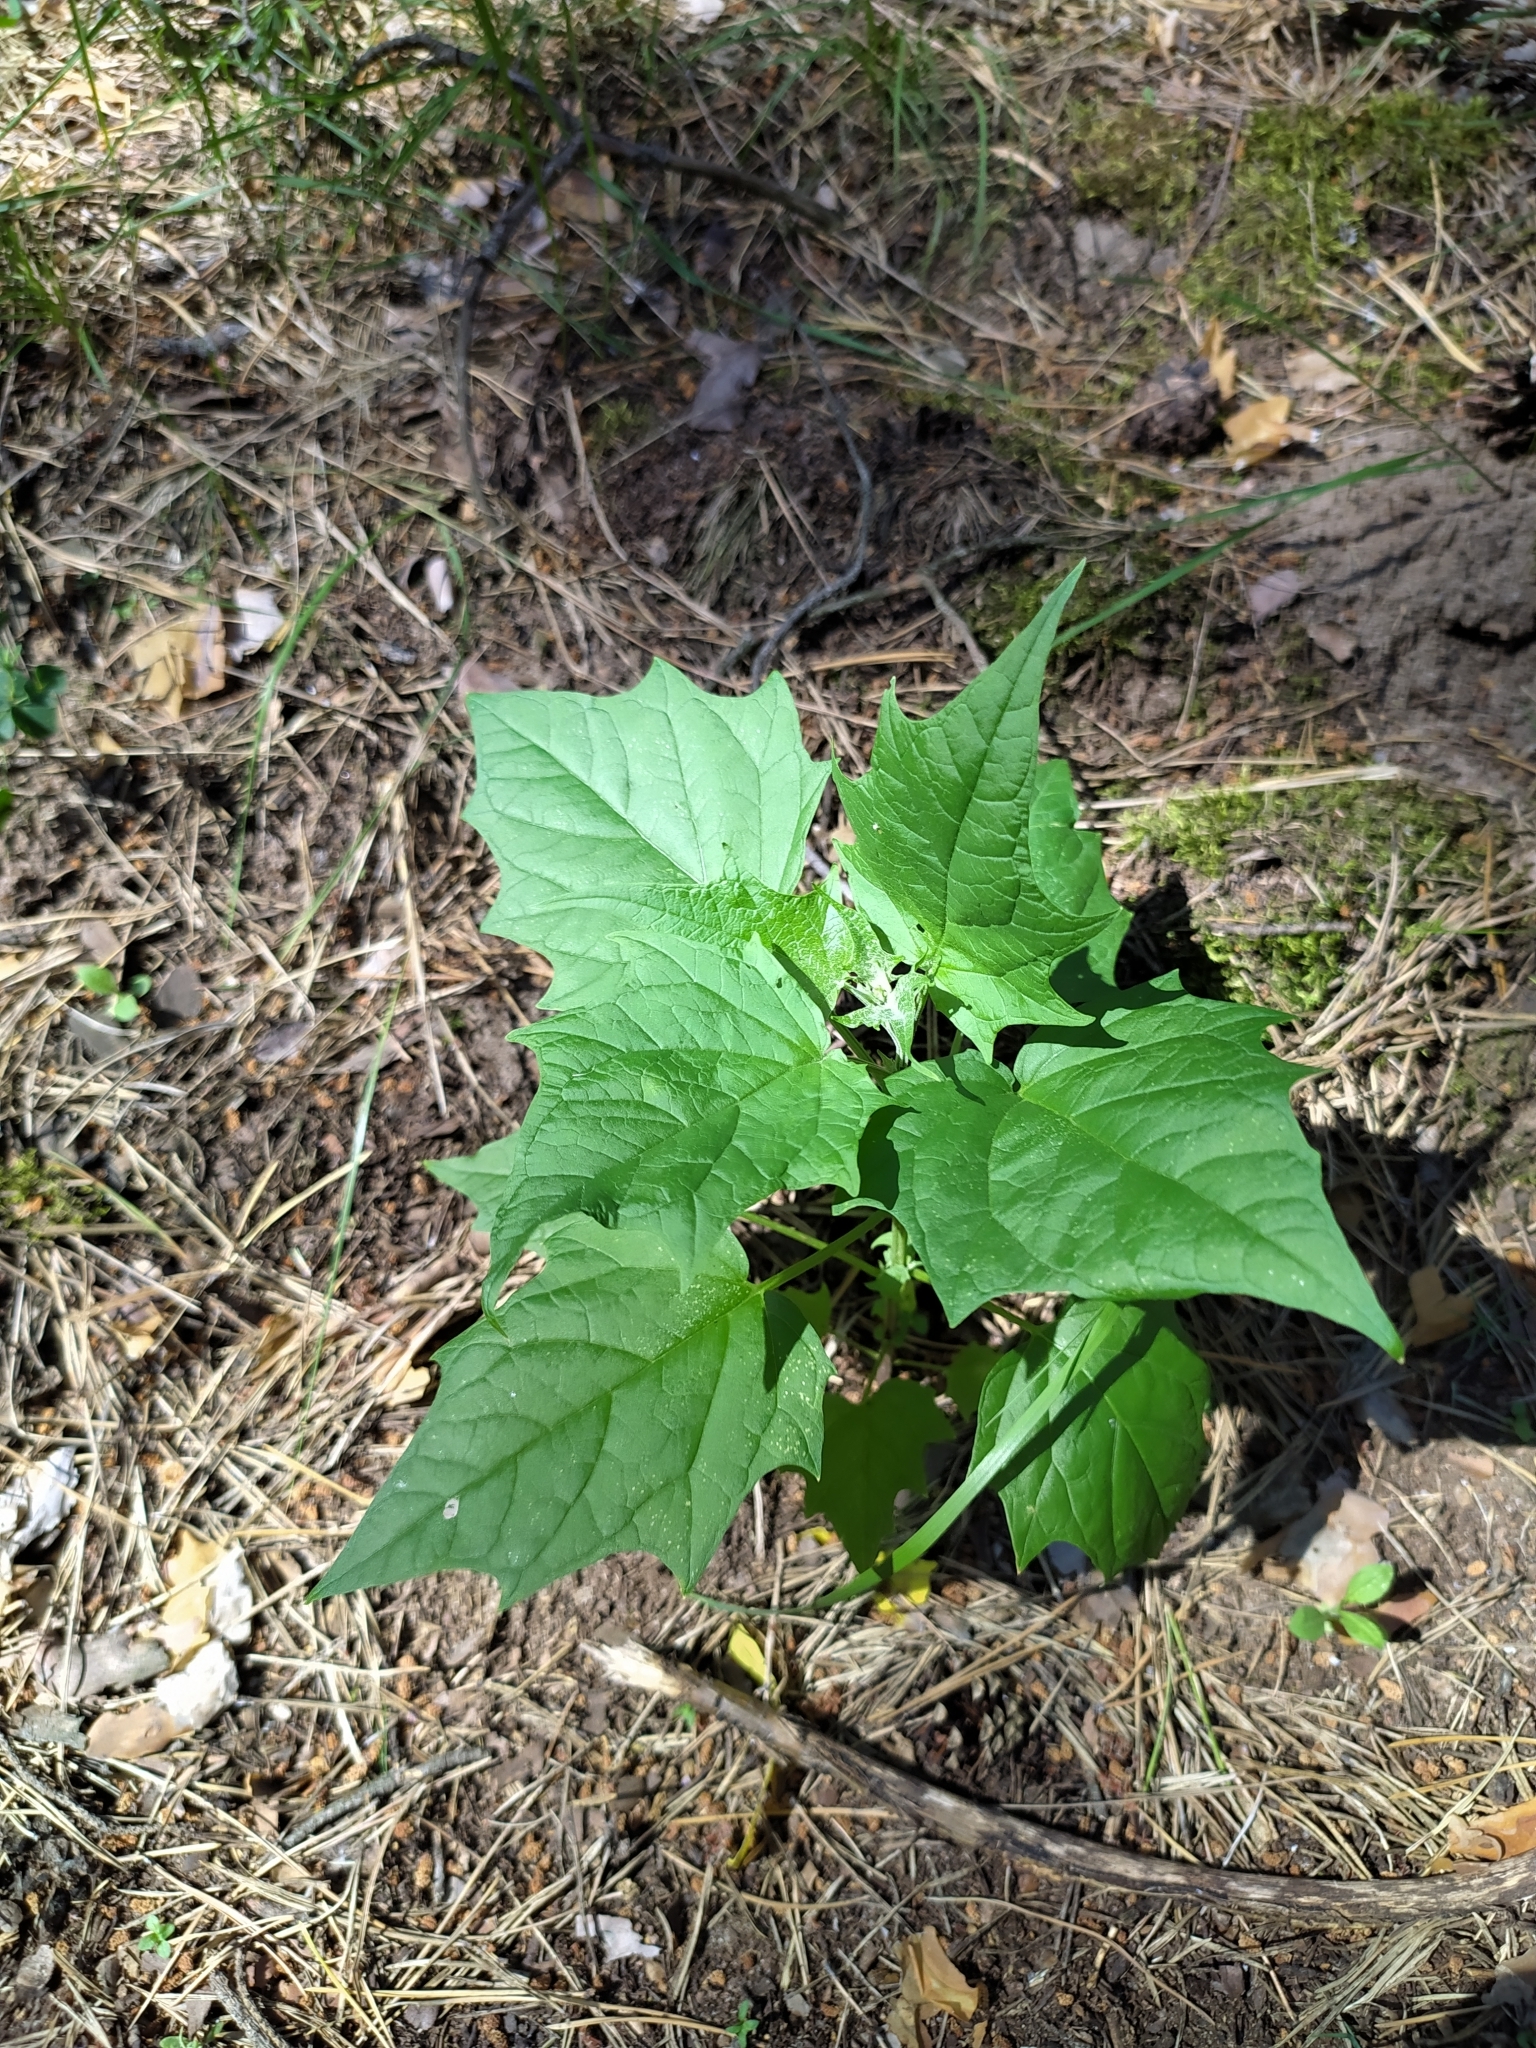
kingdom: Plantae
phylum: Tracheophyta
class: Magnoliopsida
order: Caryophyllales
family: Amaranthaceae
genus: Chenopodiastrum
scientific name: Chenopodiastrum hybridum
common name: Mapleleaf goosefoot
